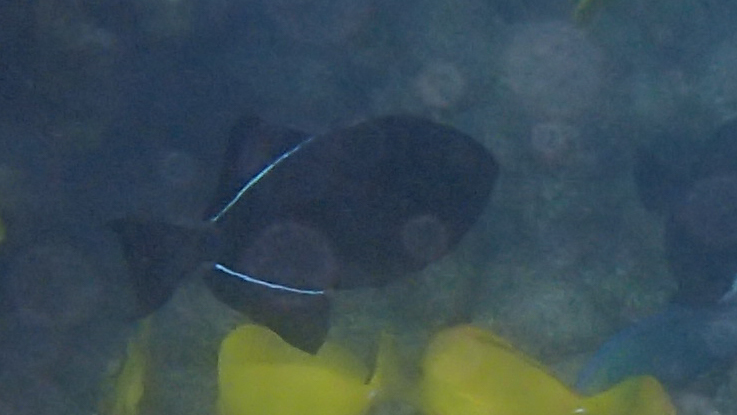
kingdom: Animalia
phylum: Chordata
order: Tetraodontiformes
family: Balistidae
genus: Melichthys
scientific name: Melichthys niger
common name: Black durgon
